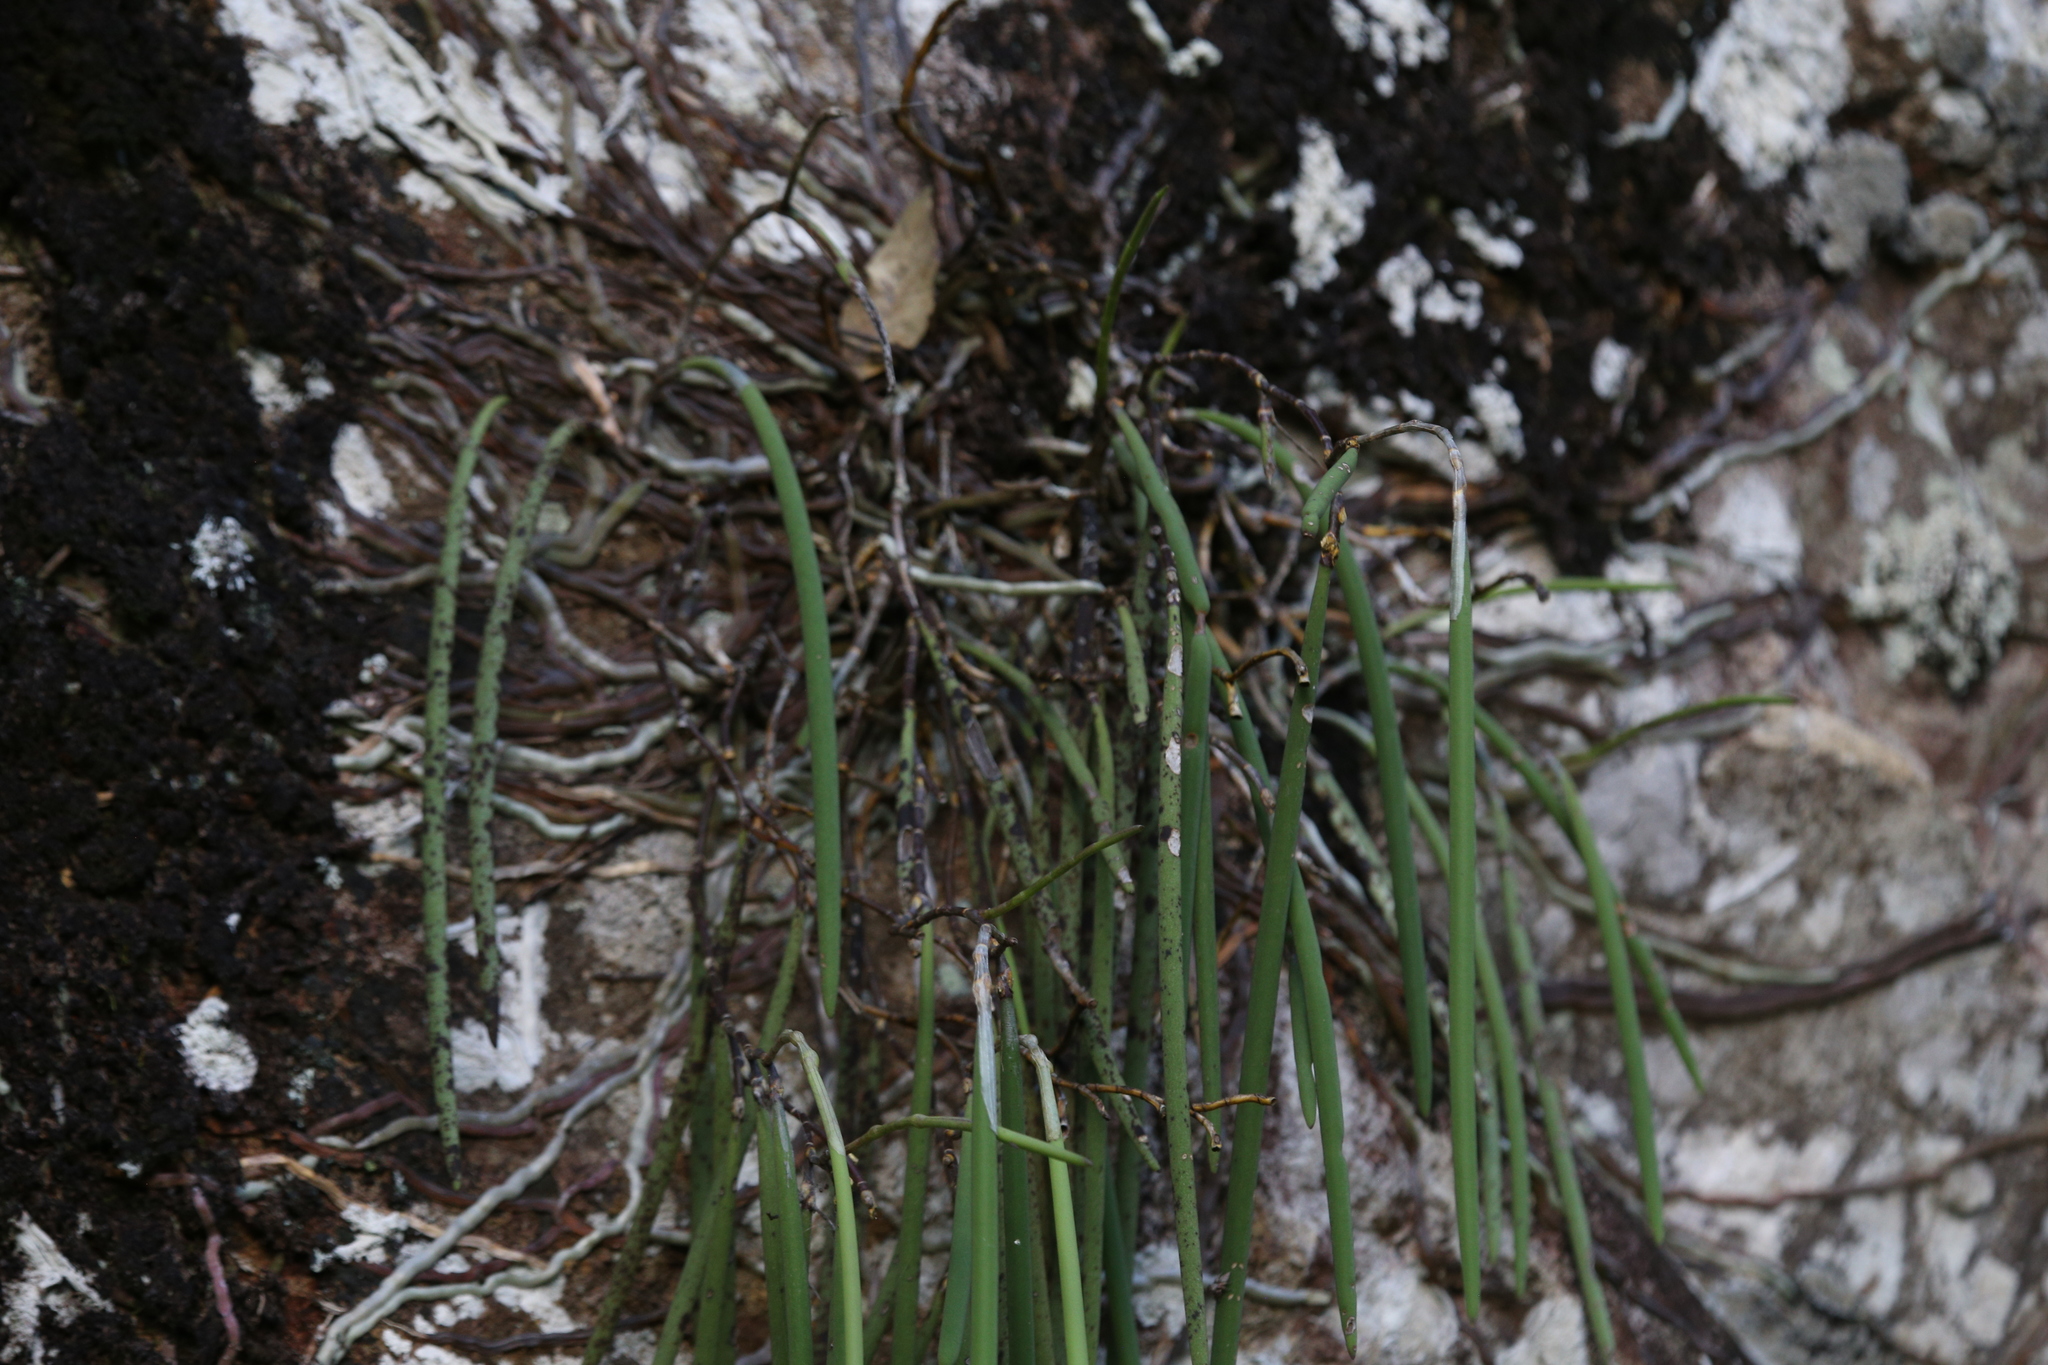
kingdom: Plantae
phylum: Tracheophyta
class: Liliopsida
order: Asparagales
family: Orchidaceae
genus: Dendrobium
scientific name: Dendrobium teretifolium
